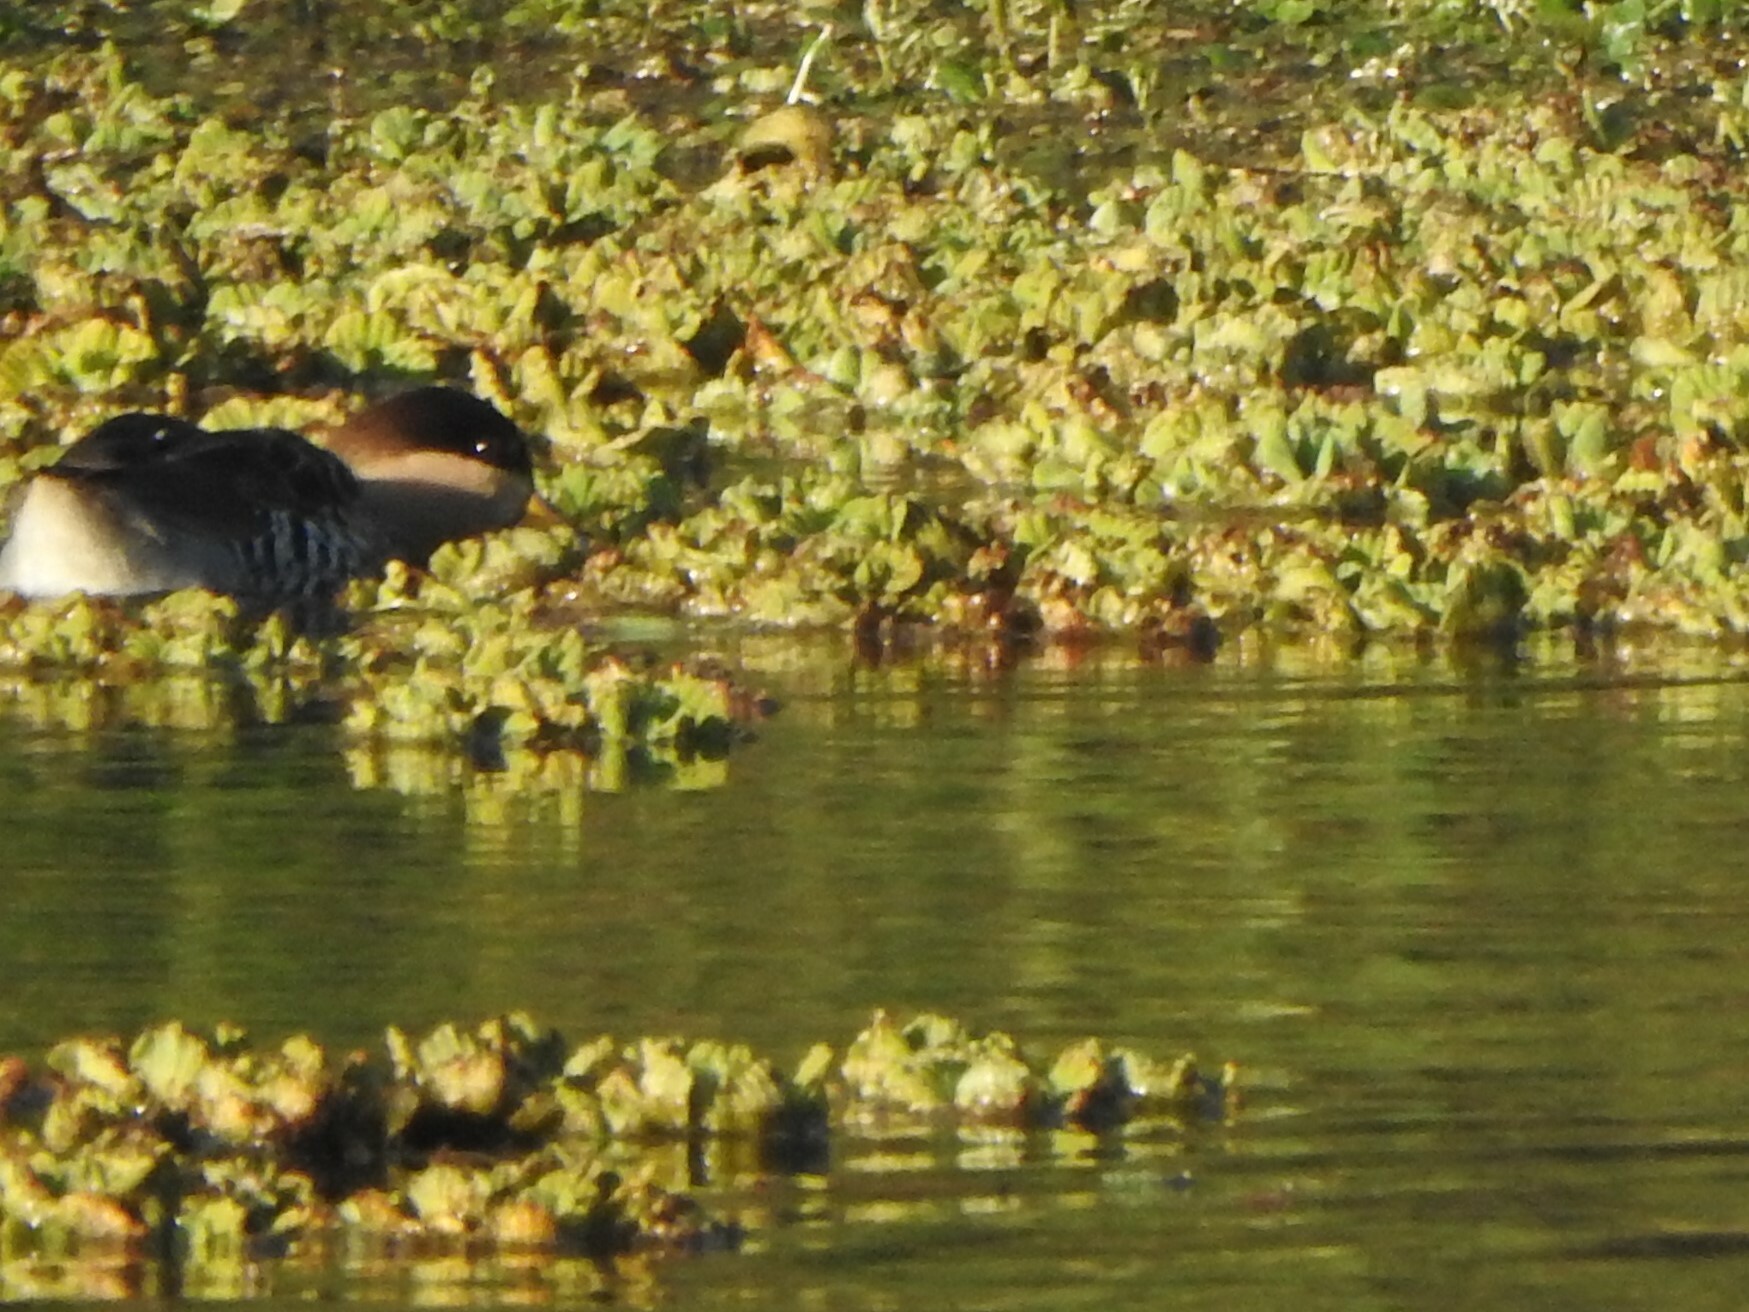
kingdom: Animalia
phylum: Chordata
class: Aves
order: Anseriformes
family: Anatidae
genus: Spatula
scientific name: Spatula versicolor
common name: Silver teal
